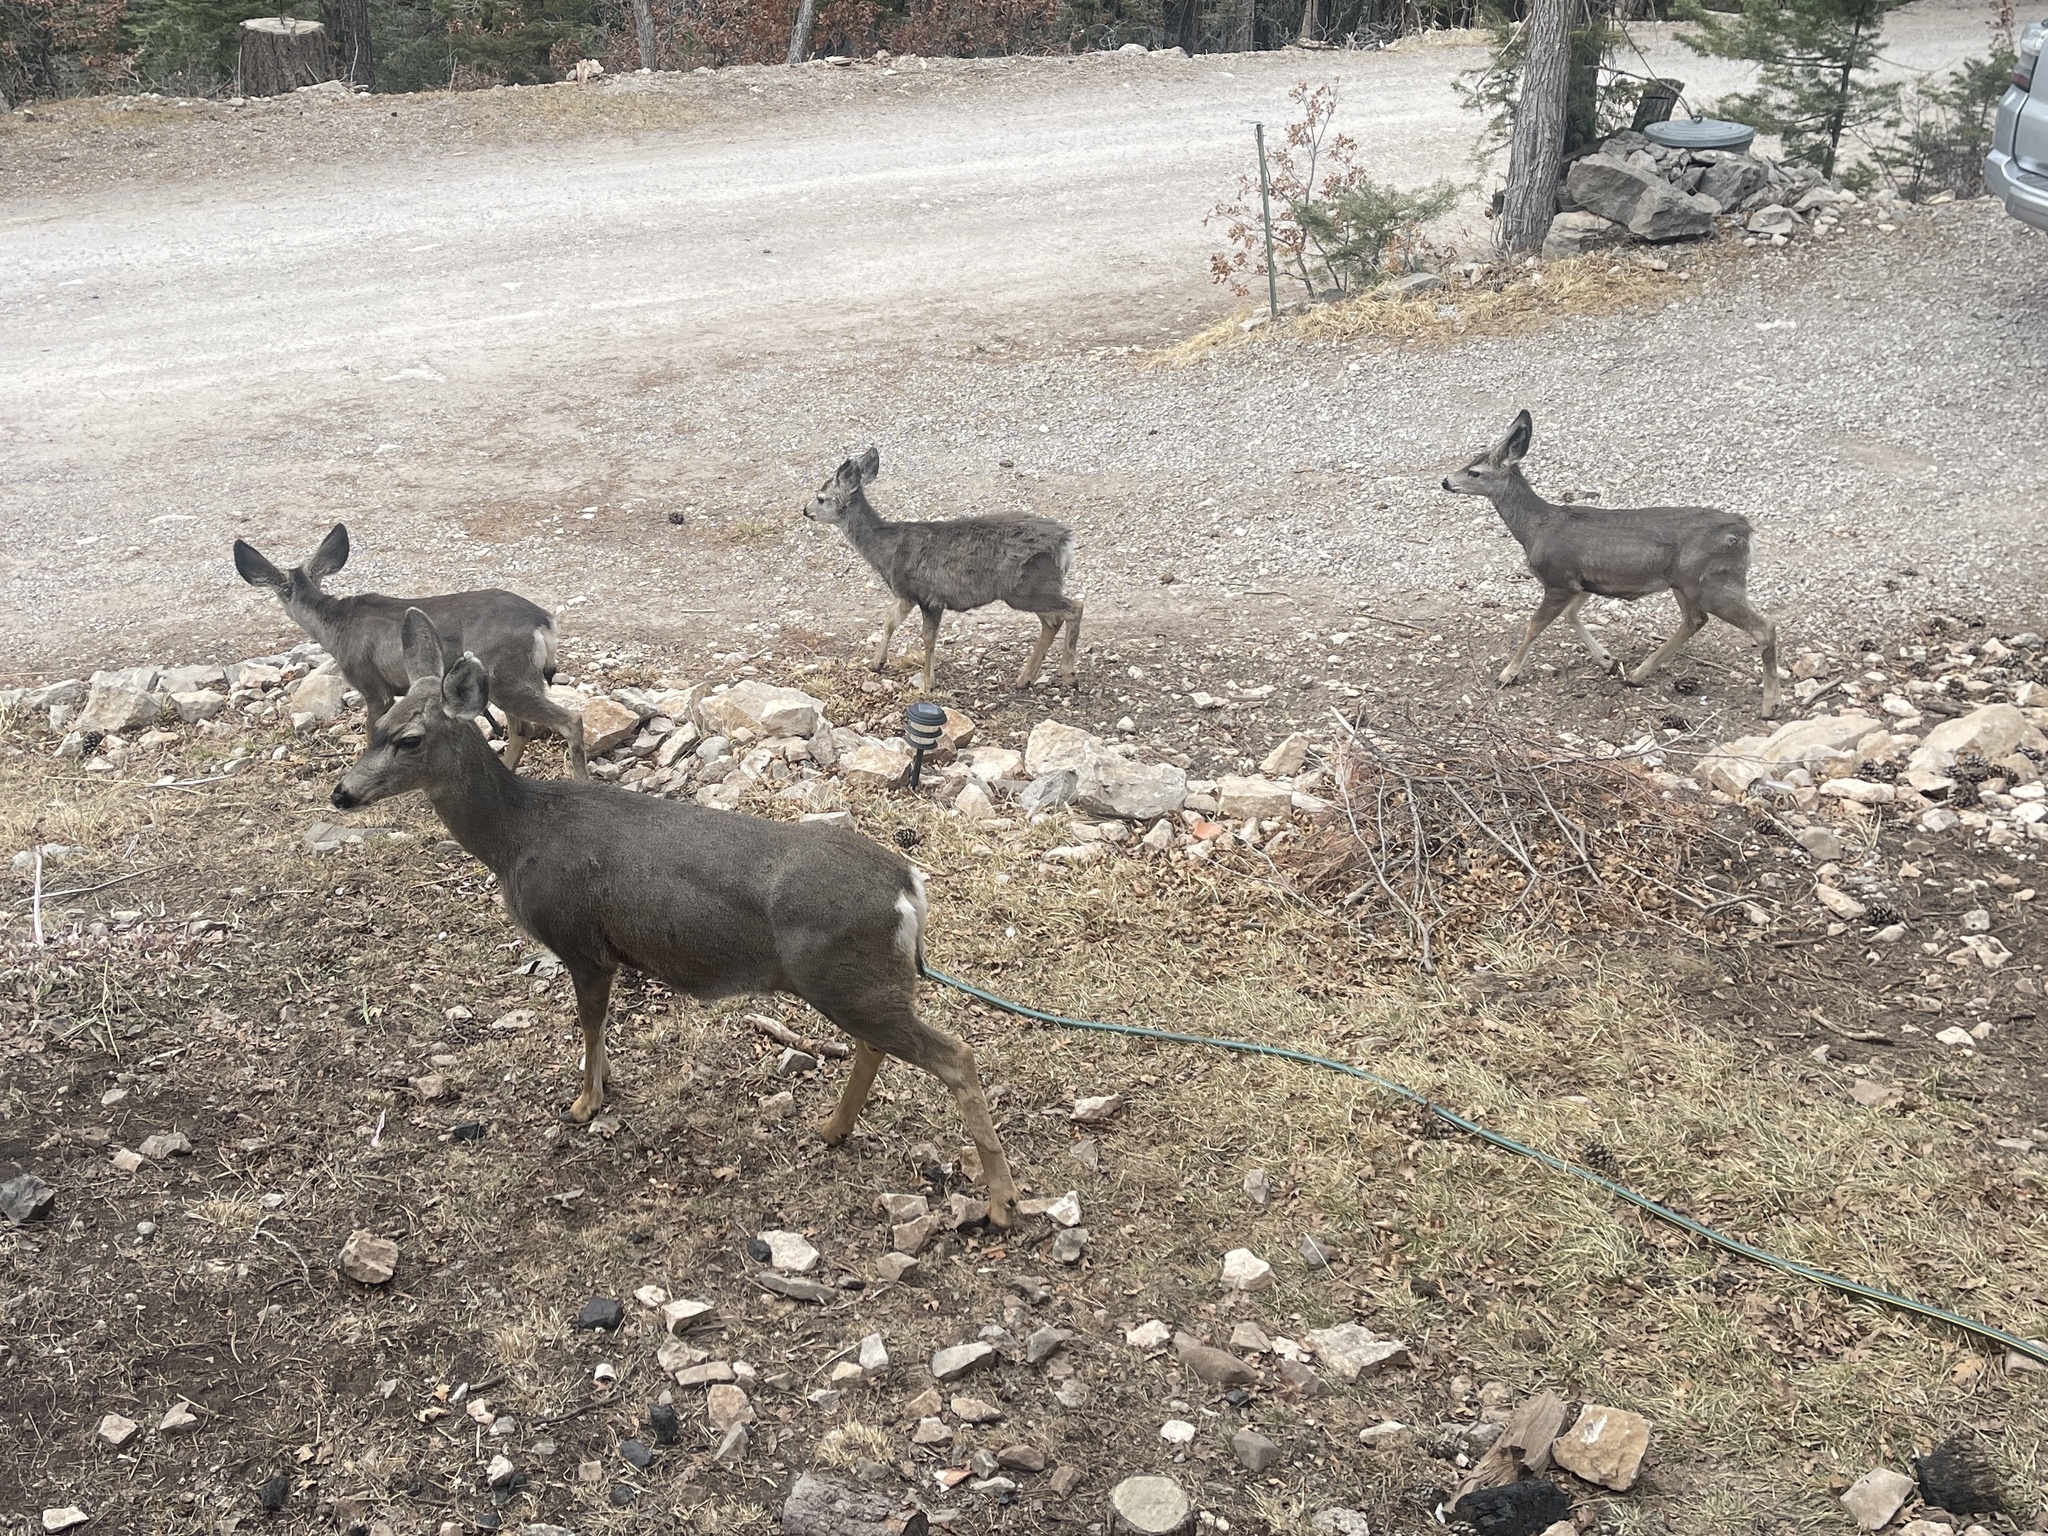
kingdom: Animalia
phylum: Chordata
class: Mammalia
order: Artiodactyla
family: Cervidae
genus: Odocoileus
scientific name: Odocoileus hemionus
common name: Mule deer
